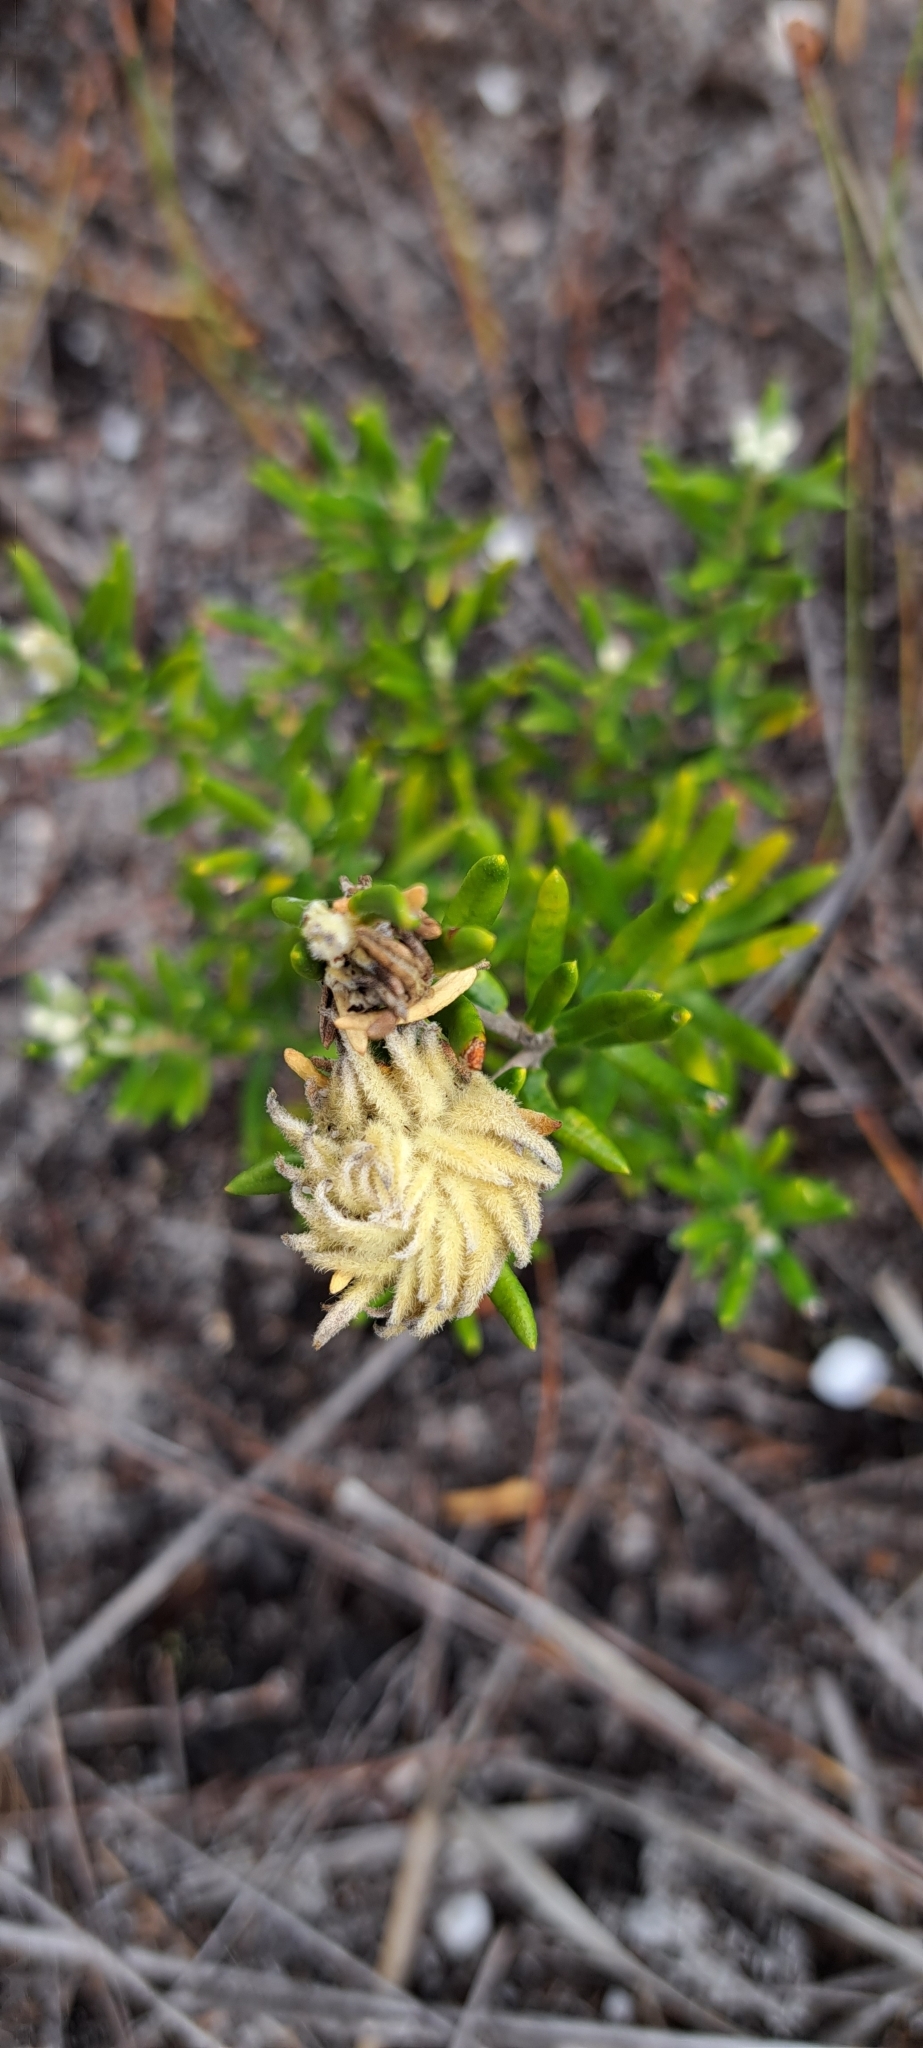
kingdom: Plantae
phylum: Tracheophyta
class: Magnoliopsida
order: Rosales
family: Rhamnaceae
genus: Phylica
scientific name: Phylica lasiocarpa
